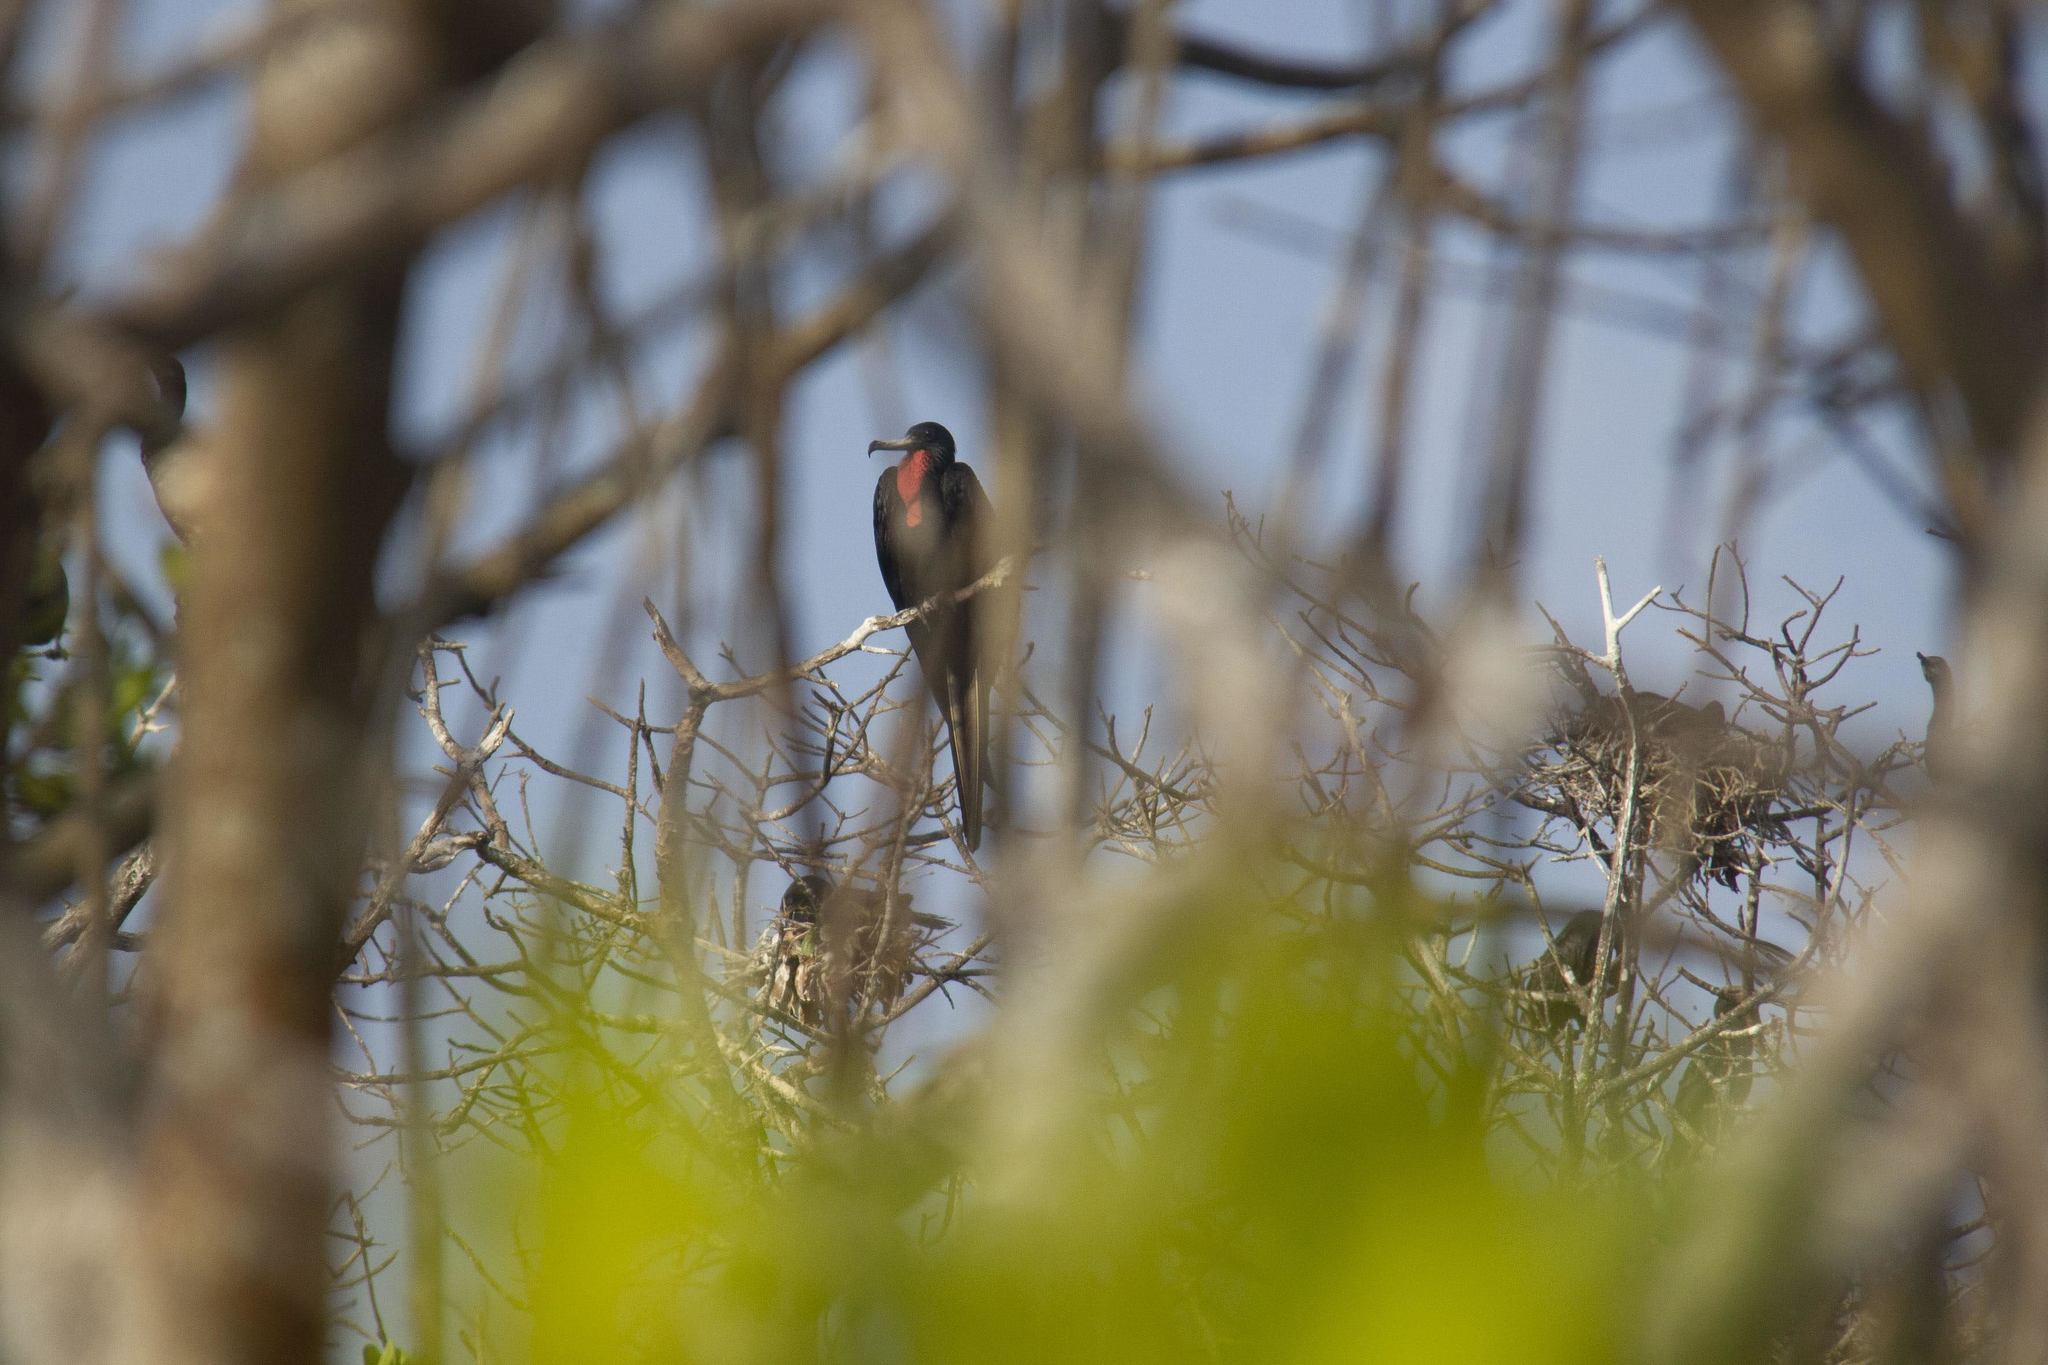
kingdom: Animalia
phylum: Chordata
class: Aves
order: Suliformes
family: Fregatidae
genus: Fregata
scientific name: Fregata magnificens
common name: Magnificent frigatebird
